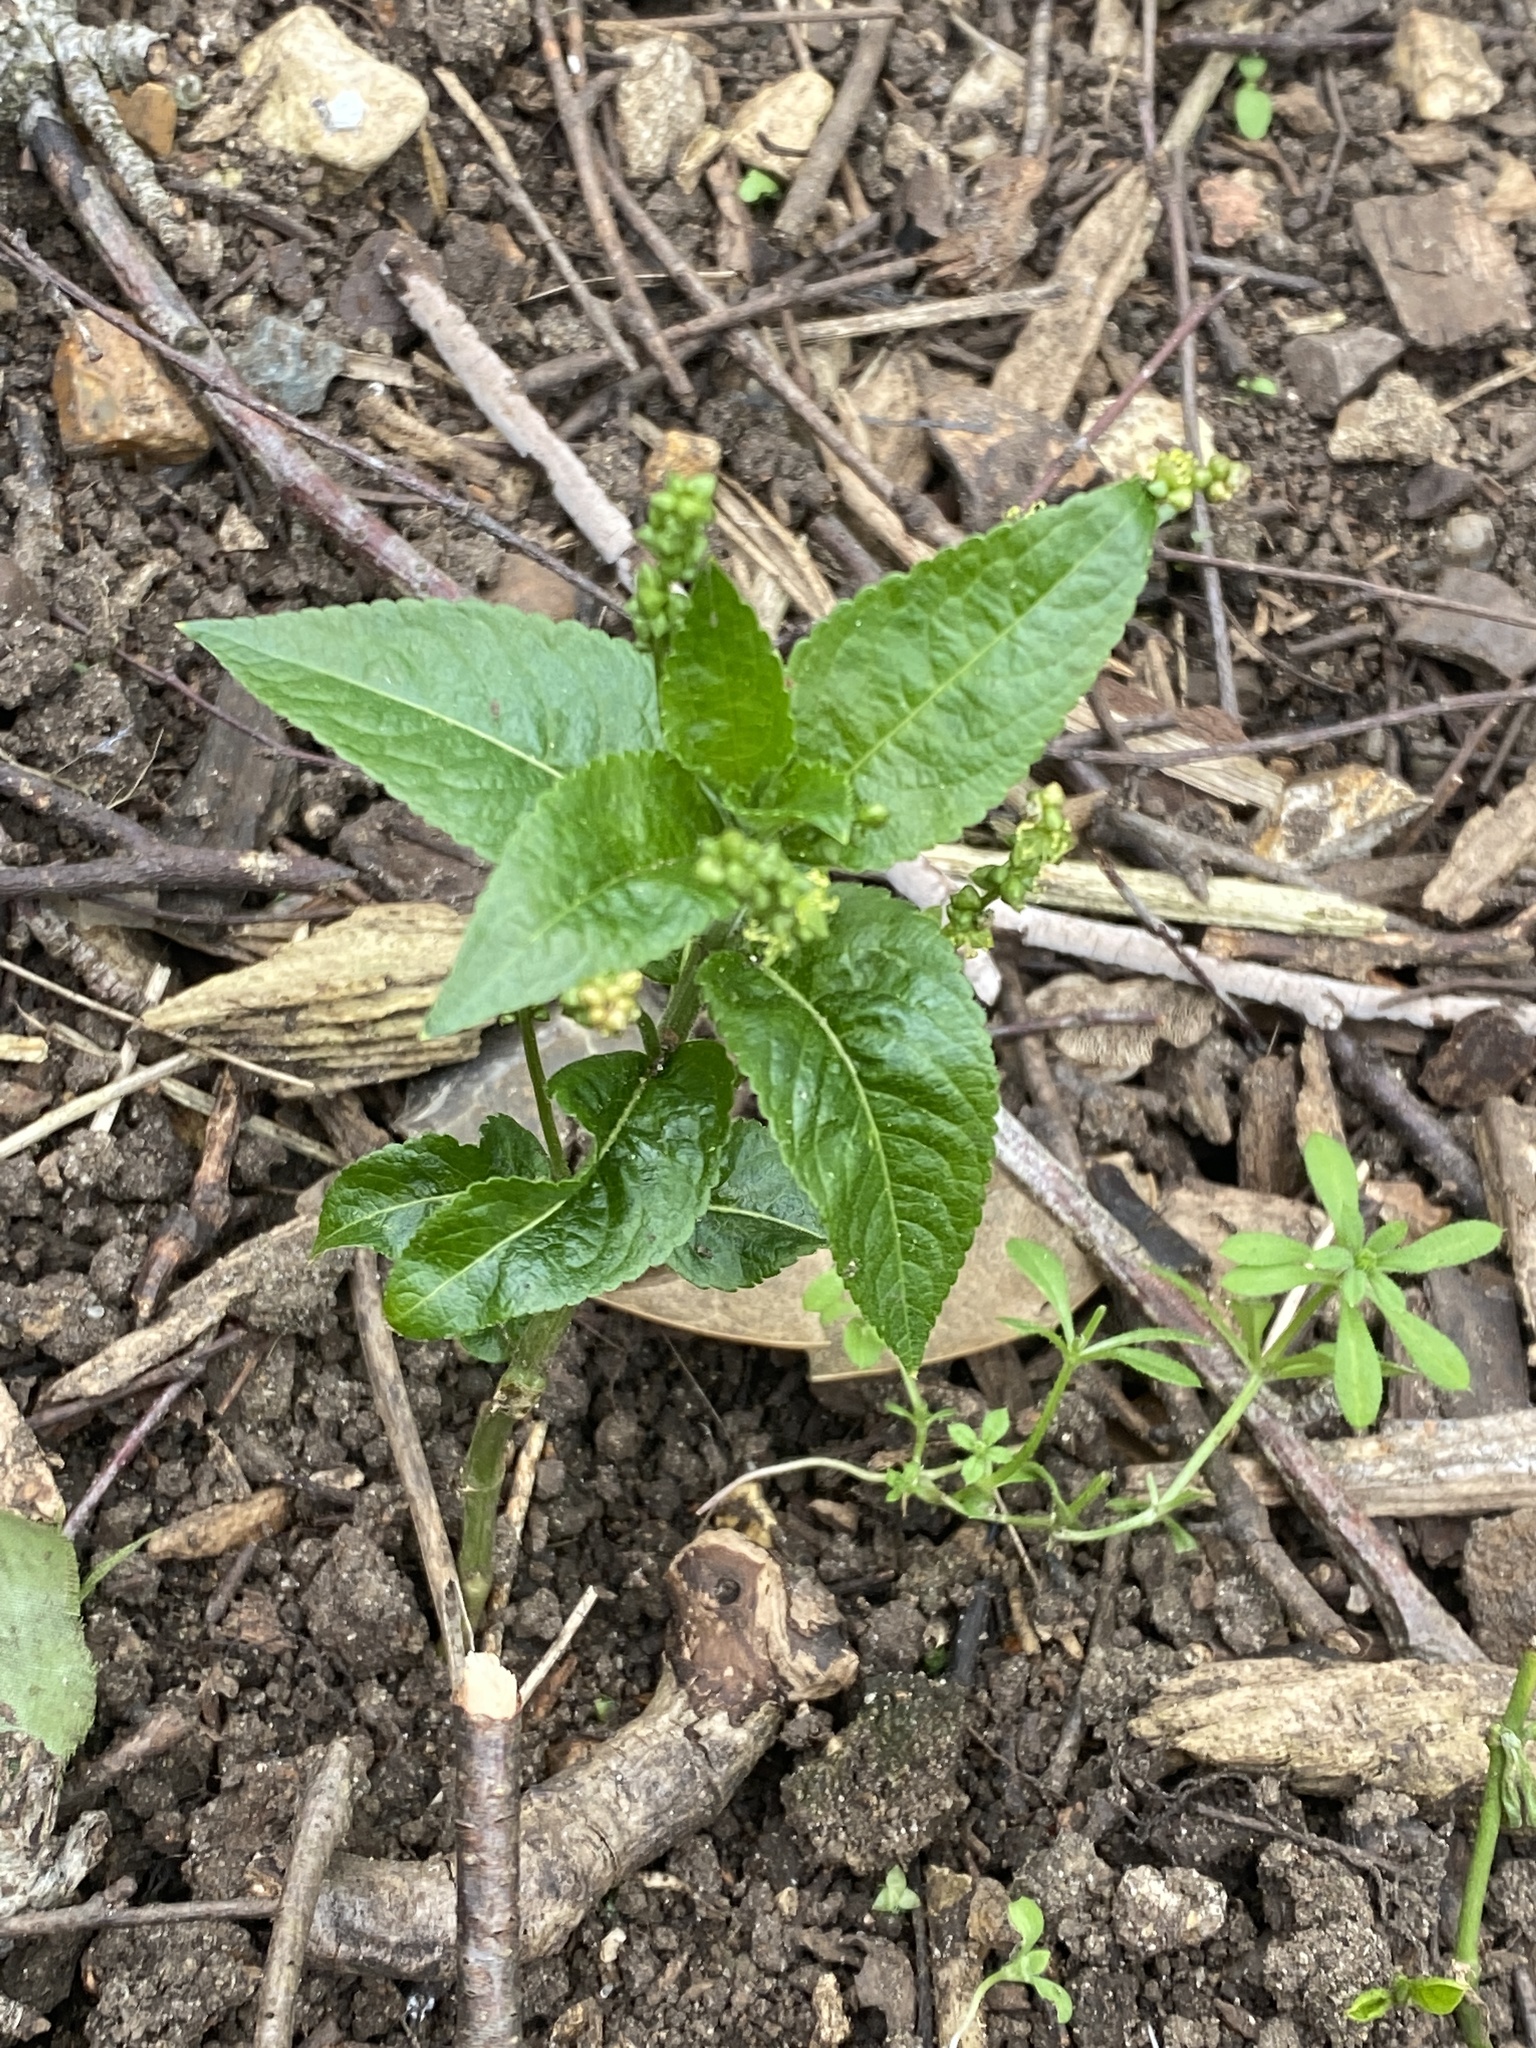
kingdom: Plantae
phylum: Tracheophyta
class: Magnoliopsida
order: Malpighiales
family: Euphorbiaceae
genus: Mercurialis
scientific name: Mercurialis perennis
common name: Dog mercury
